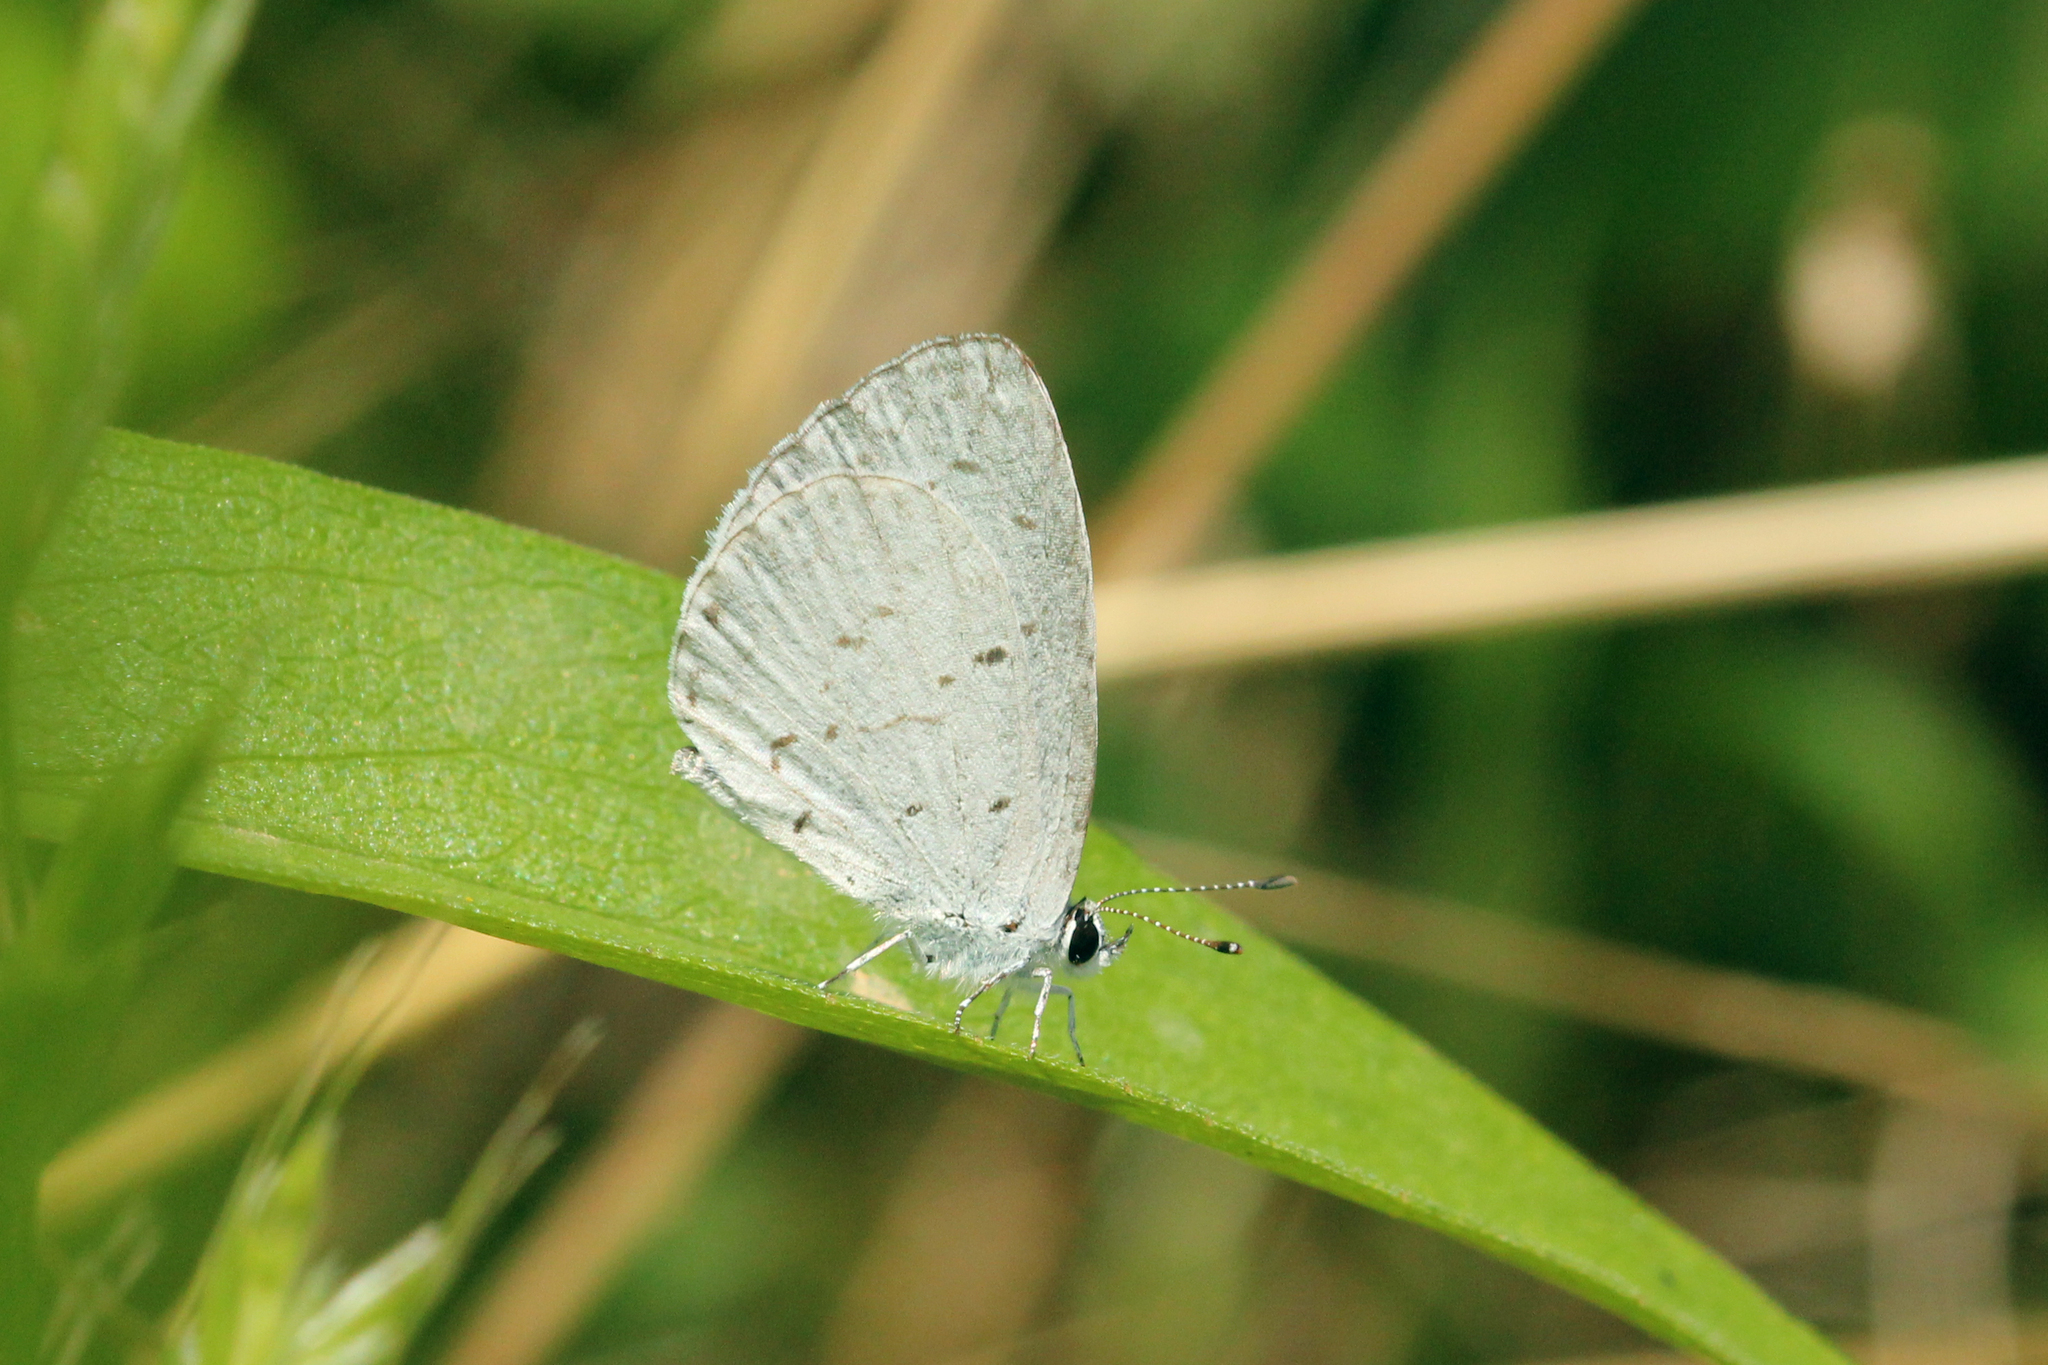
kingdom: Animalia
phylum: Arthropoda
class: Insecta
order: Lepidoptera
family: Lycaenidae
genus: Cyaniris
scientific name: Cyaniris neglecta
